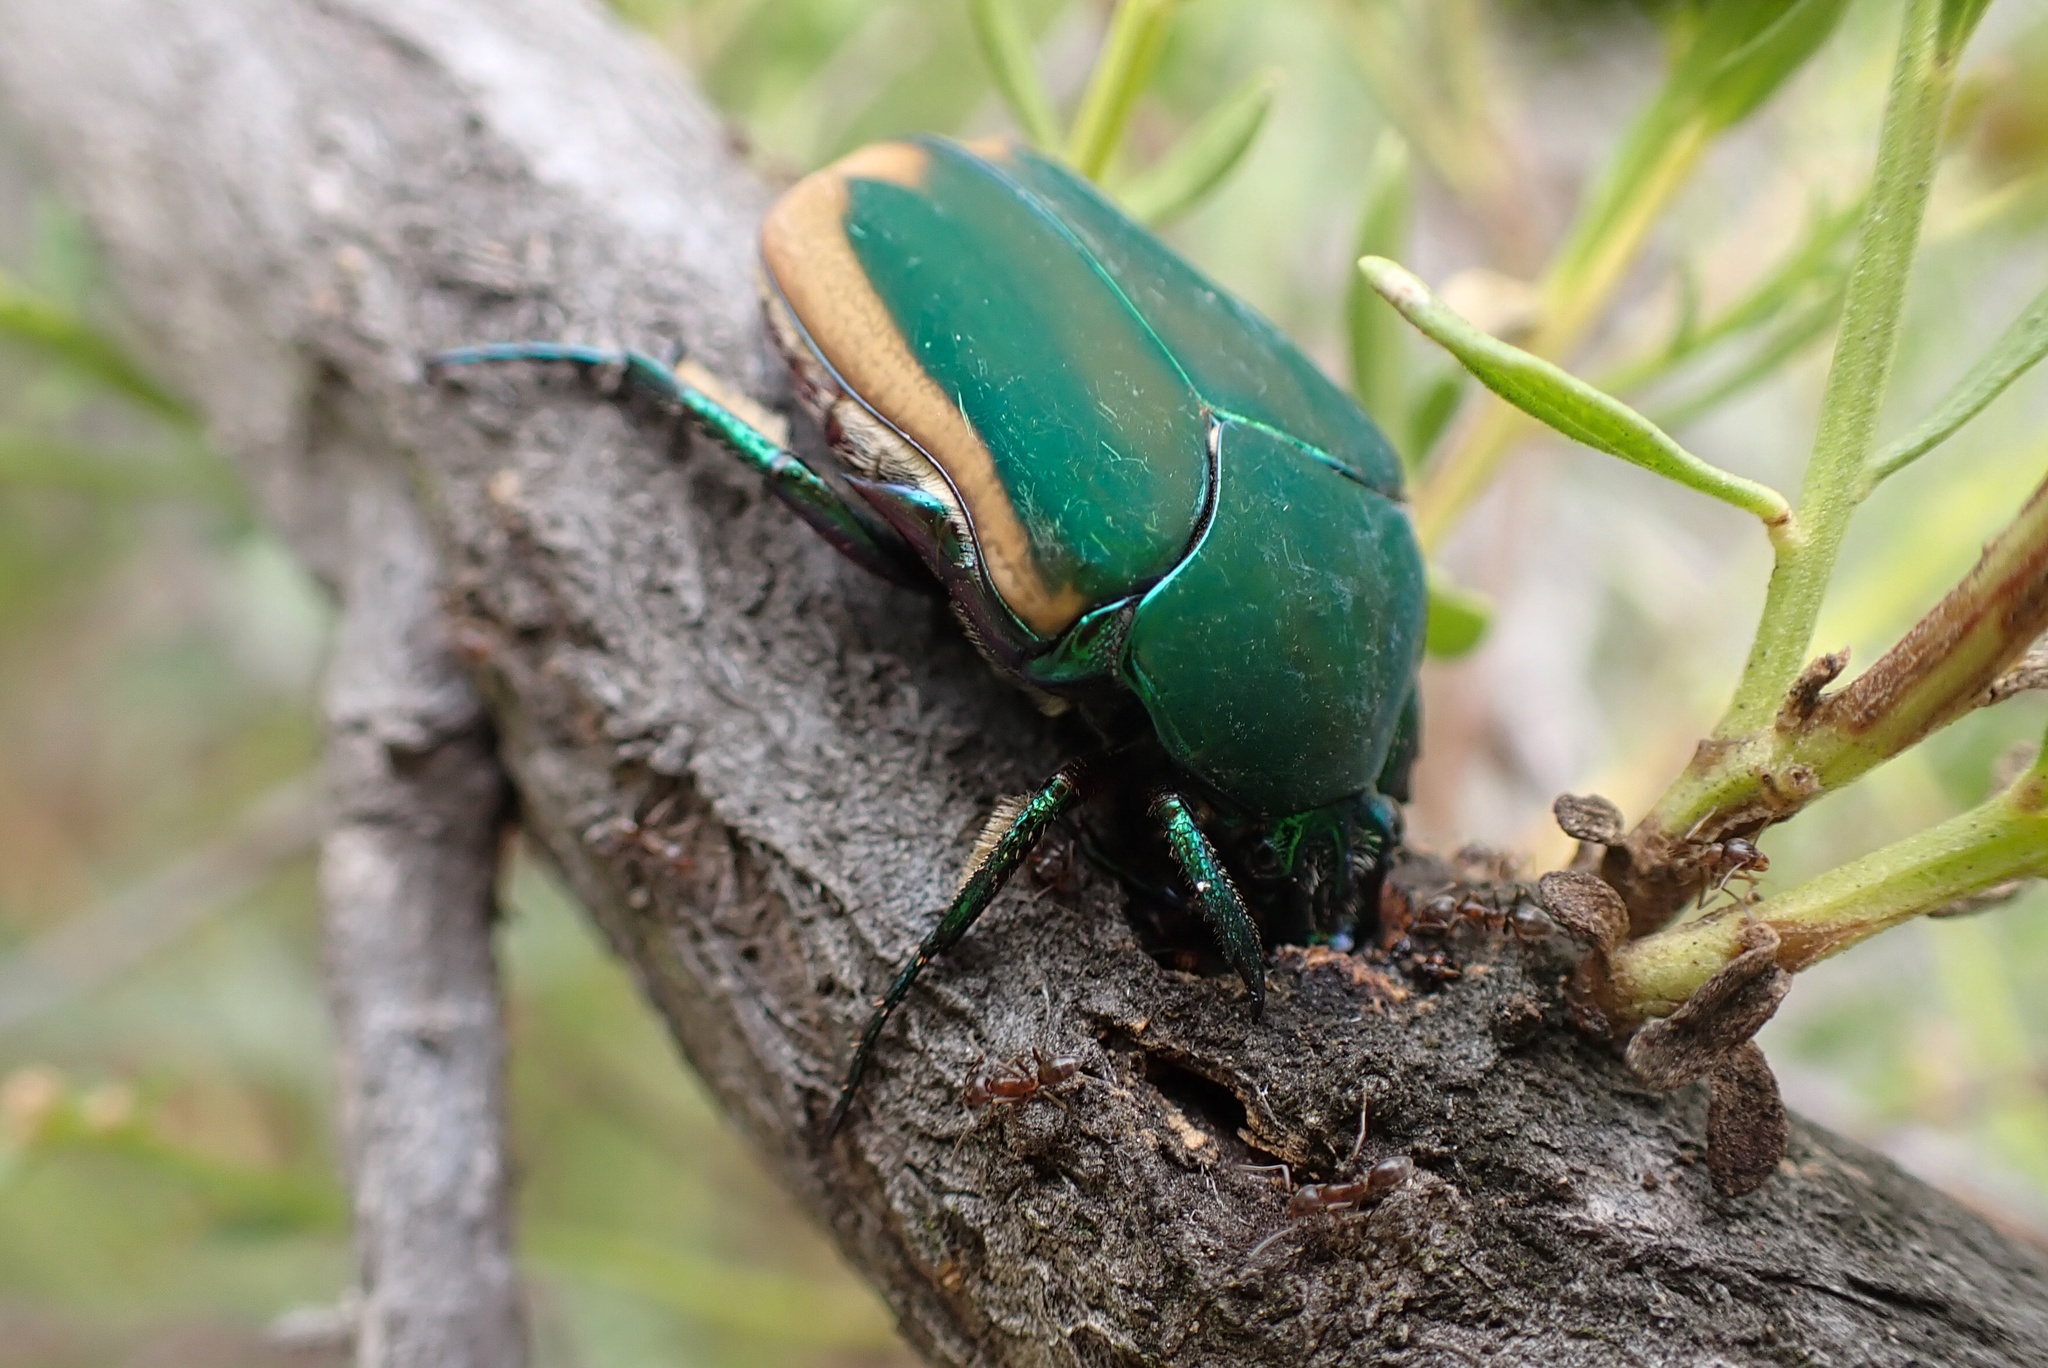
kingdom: Animalia
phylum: Arthropoda
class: Insecta
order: Coleoptera
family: Scarabaeidae
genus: Cotinis
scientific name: Cotinis mutabilis
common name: Figeater beetle
